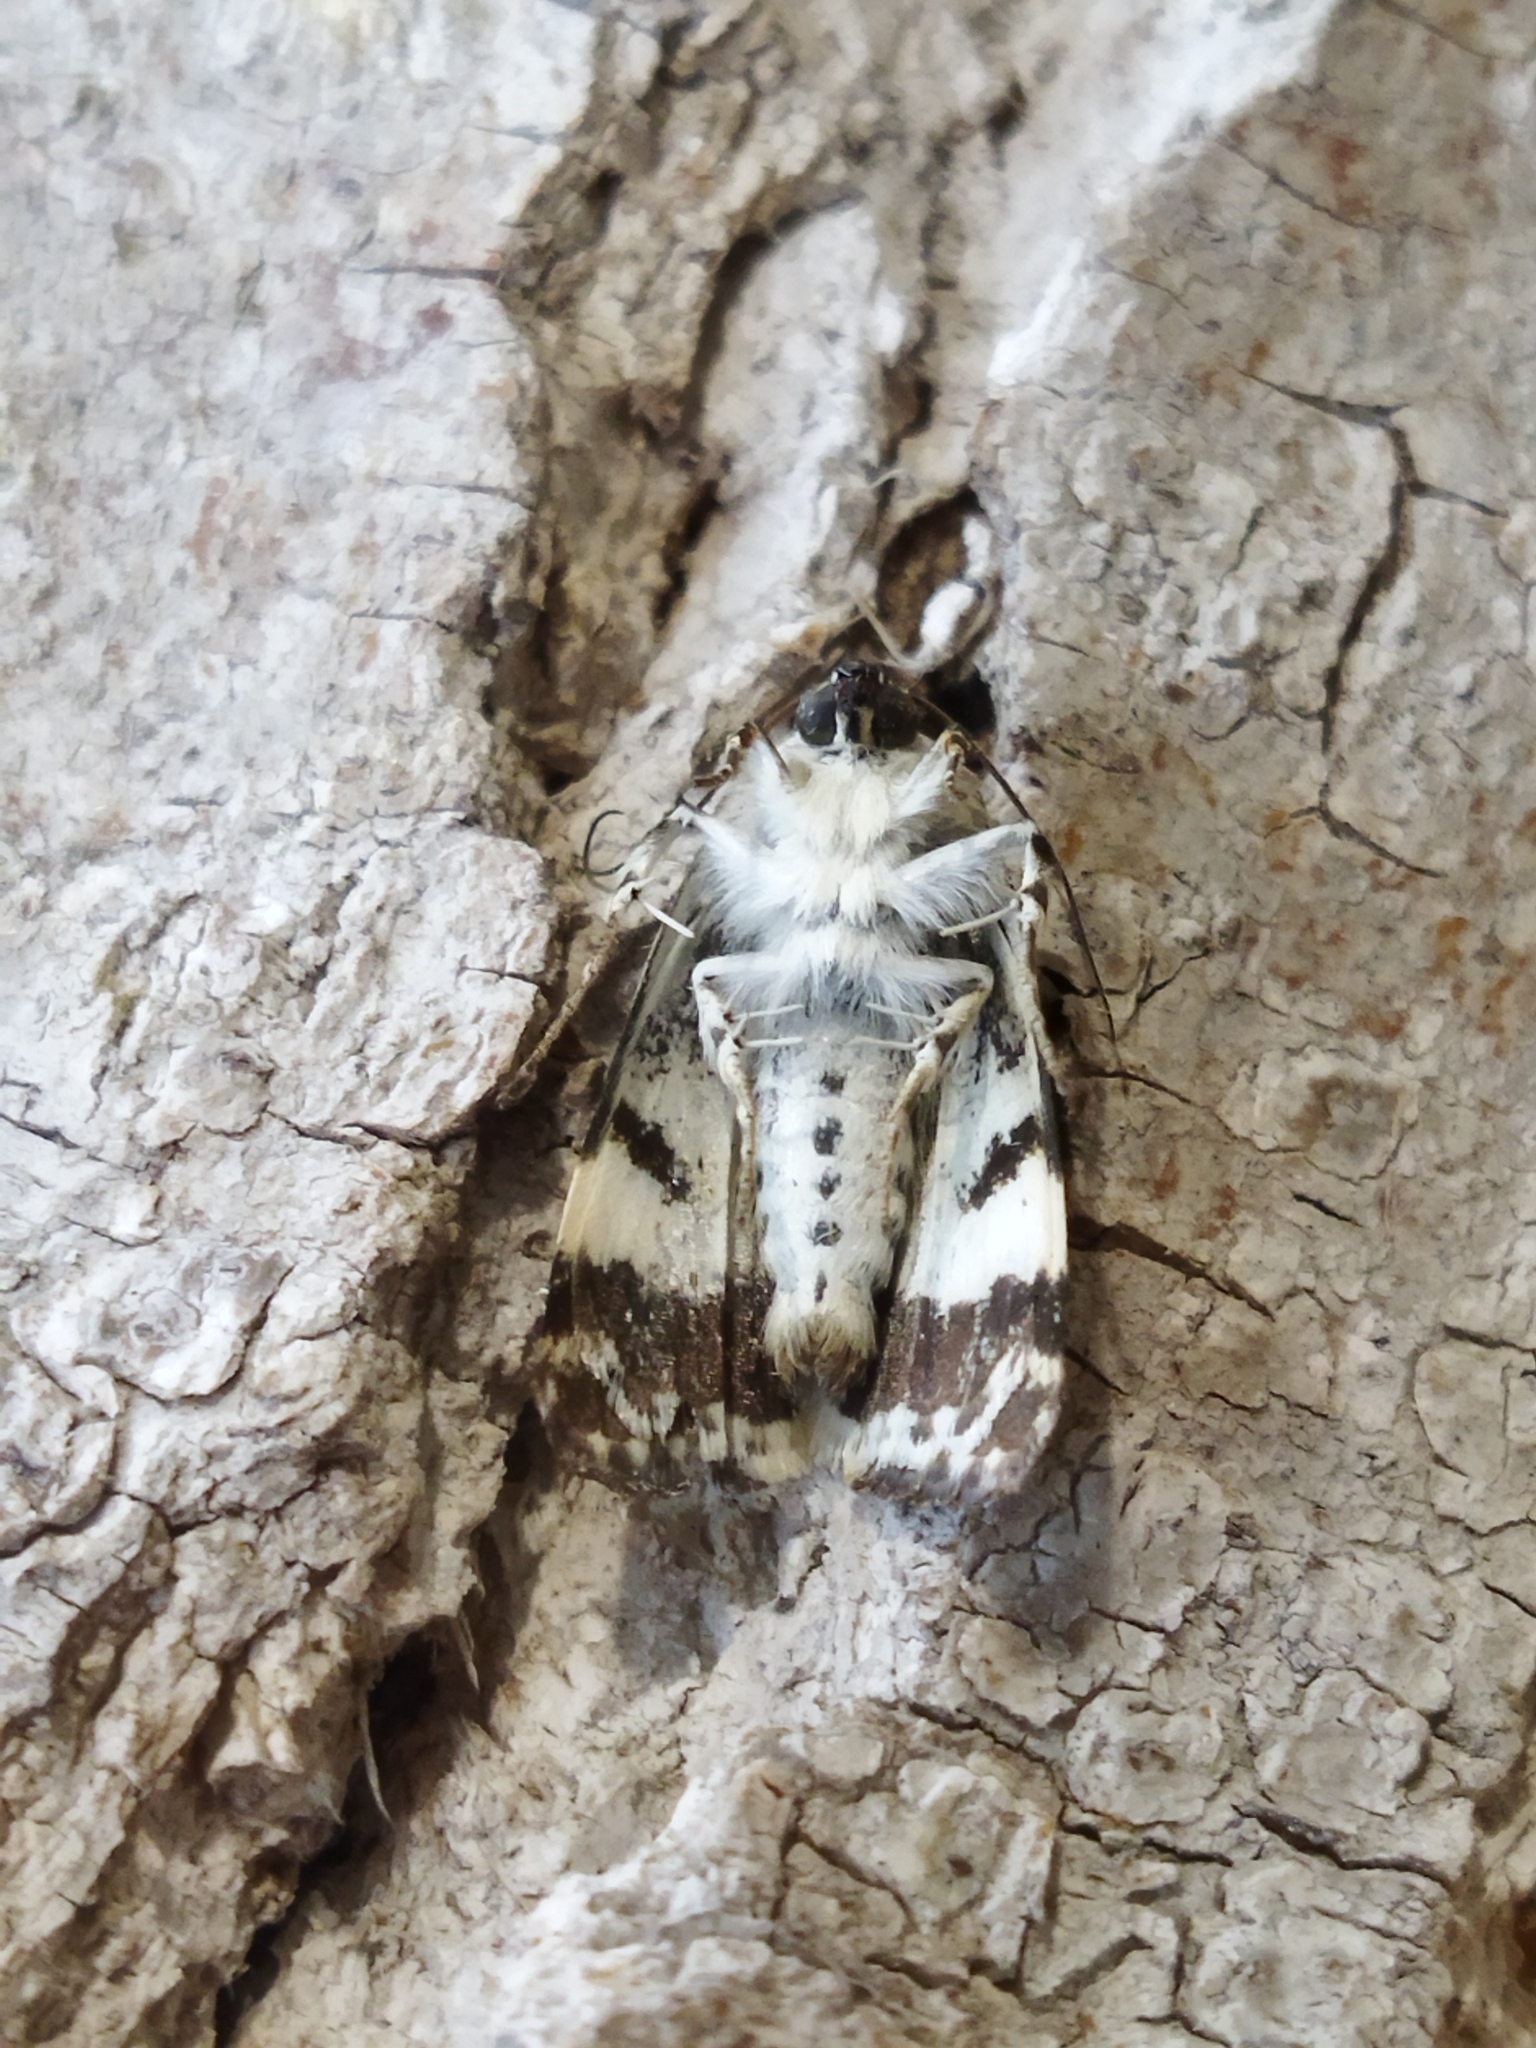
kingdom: Animalia
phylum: Arthropoda
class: Insecta
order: Lepidoptera
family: Noctuidae
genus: Acontia
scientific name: Acontia lucida
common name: Pale shoulder
